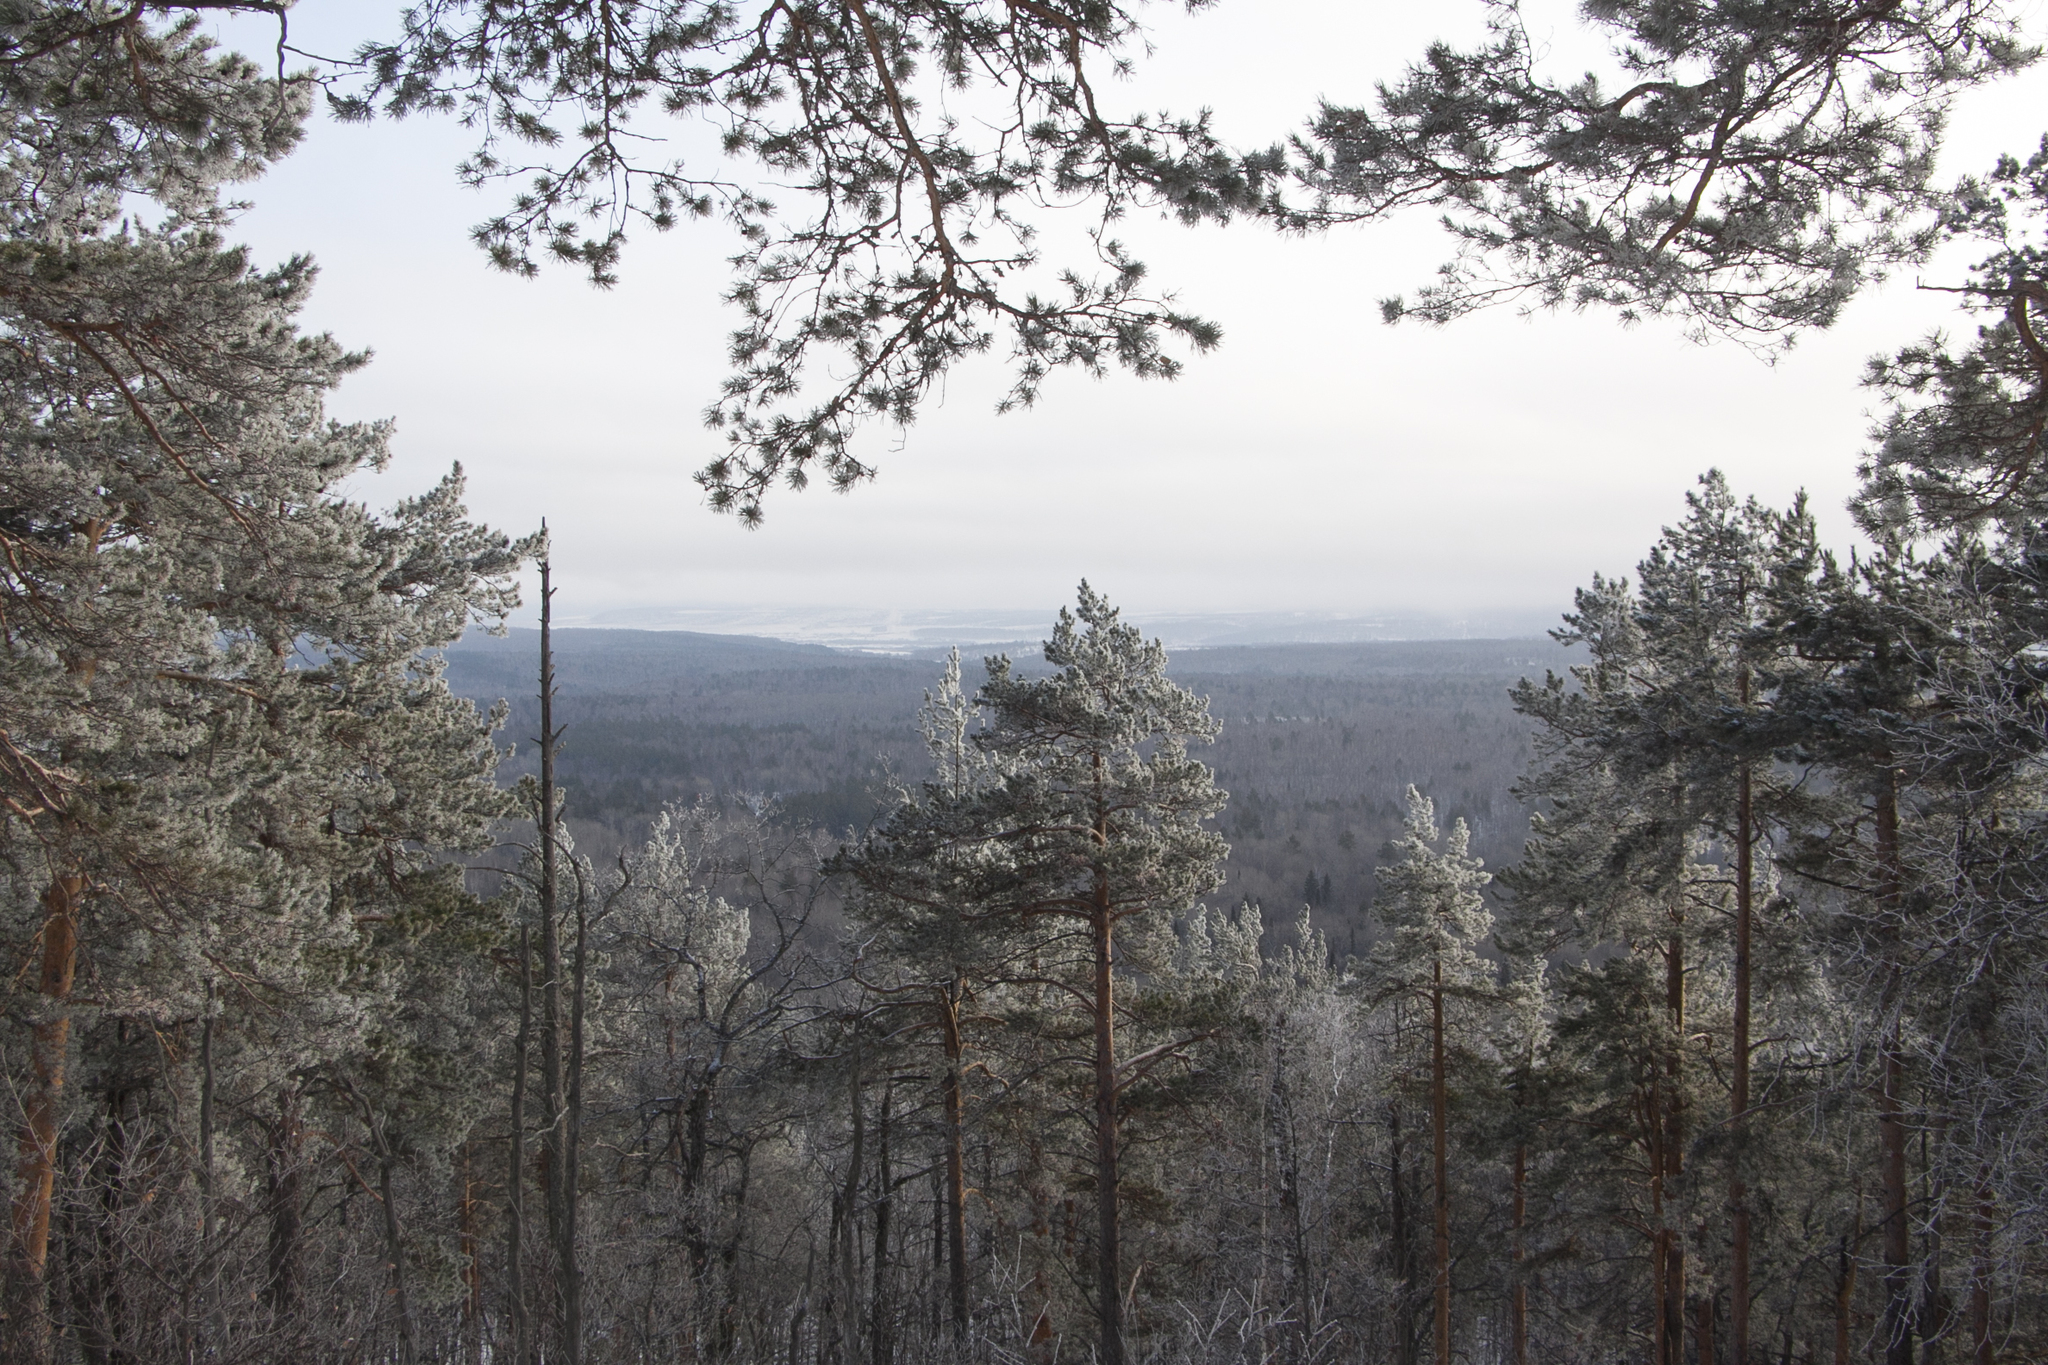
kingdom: Plantae
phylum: Tracheophyta
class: Pinopsida
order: Pinales
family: Pinaceae
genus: Pinus
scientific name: Pinus sylvestris
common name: Scots pine
